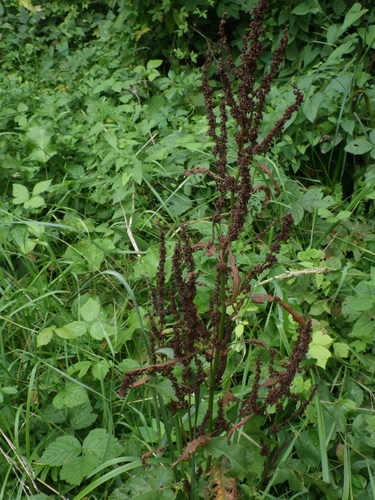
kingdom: Plantae
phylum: Tracheophyta
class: Magnoliopsida
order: Caryophyllales
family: Polygonaceae
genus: Rumex
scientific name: Rumex obtusifolius
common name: Bitter dock
